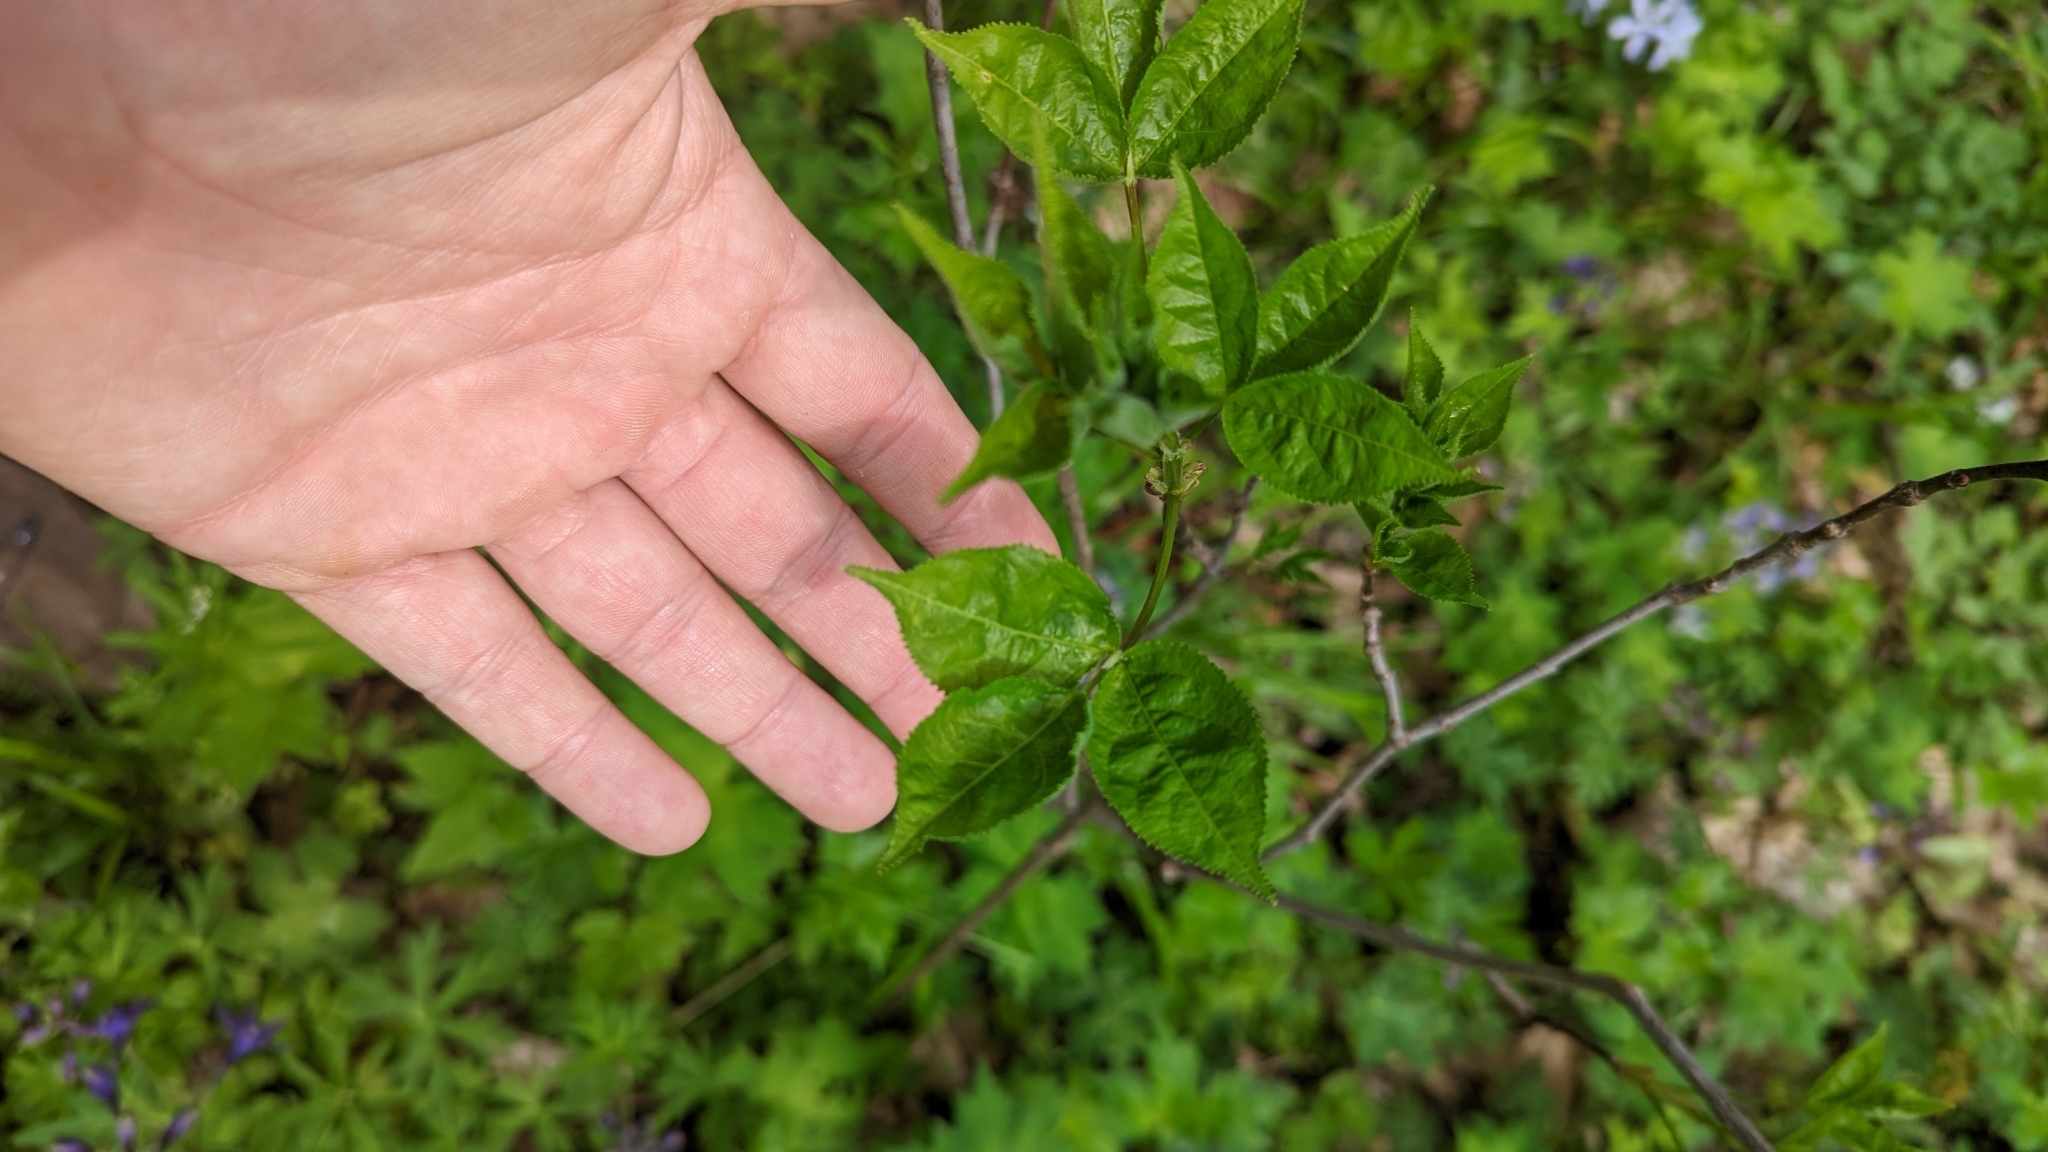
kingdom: Plantae
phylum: Tracheophyta
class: Magnoliopsida
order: Crossosomatales
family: Staphyleaceae
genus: Staphylea
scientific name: Staphylea trifolia
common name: American bladdernut
